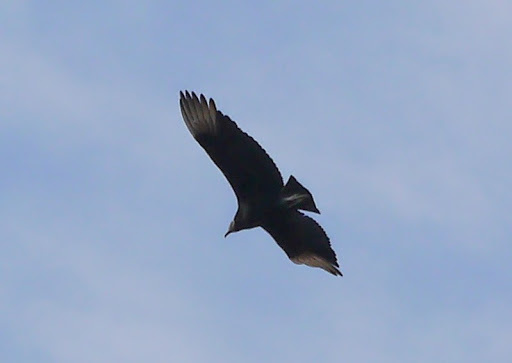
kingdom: Animalia
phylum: Chordata
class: Aves
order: Accipitriformes
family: Cathartidae
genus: Coragyps
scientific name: Coragyps atratus
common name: Black vulture
